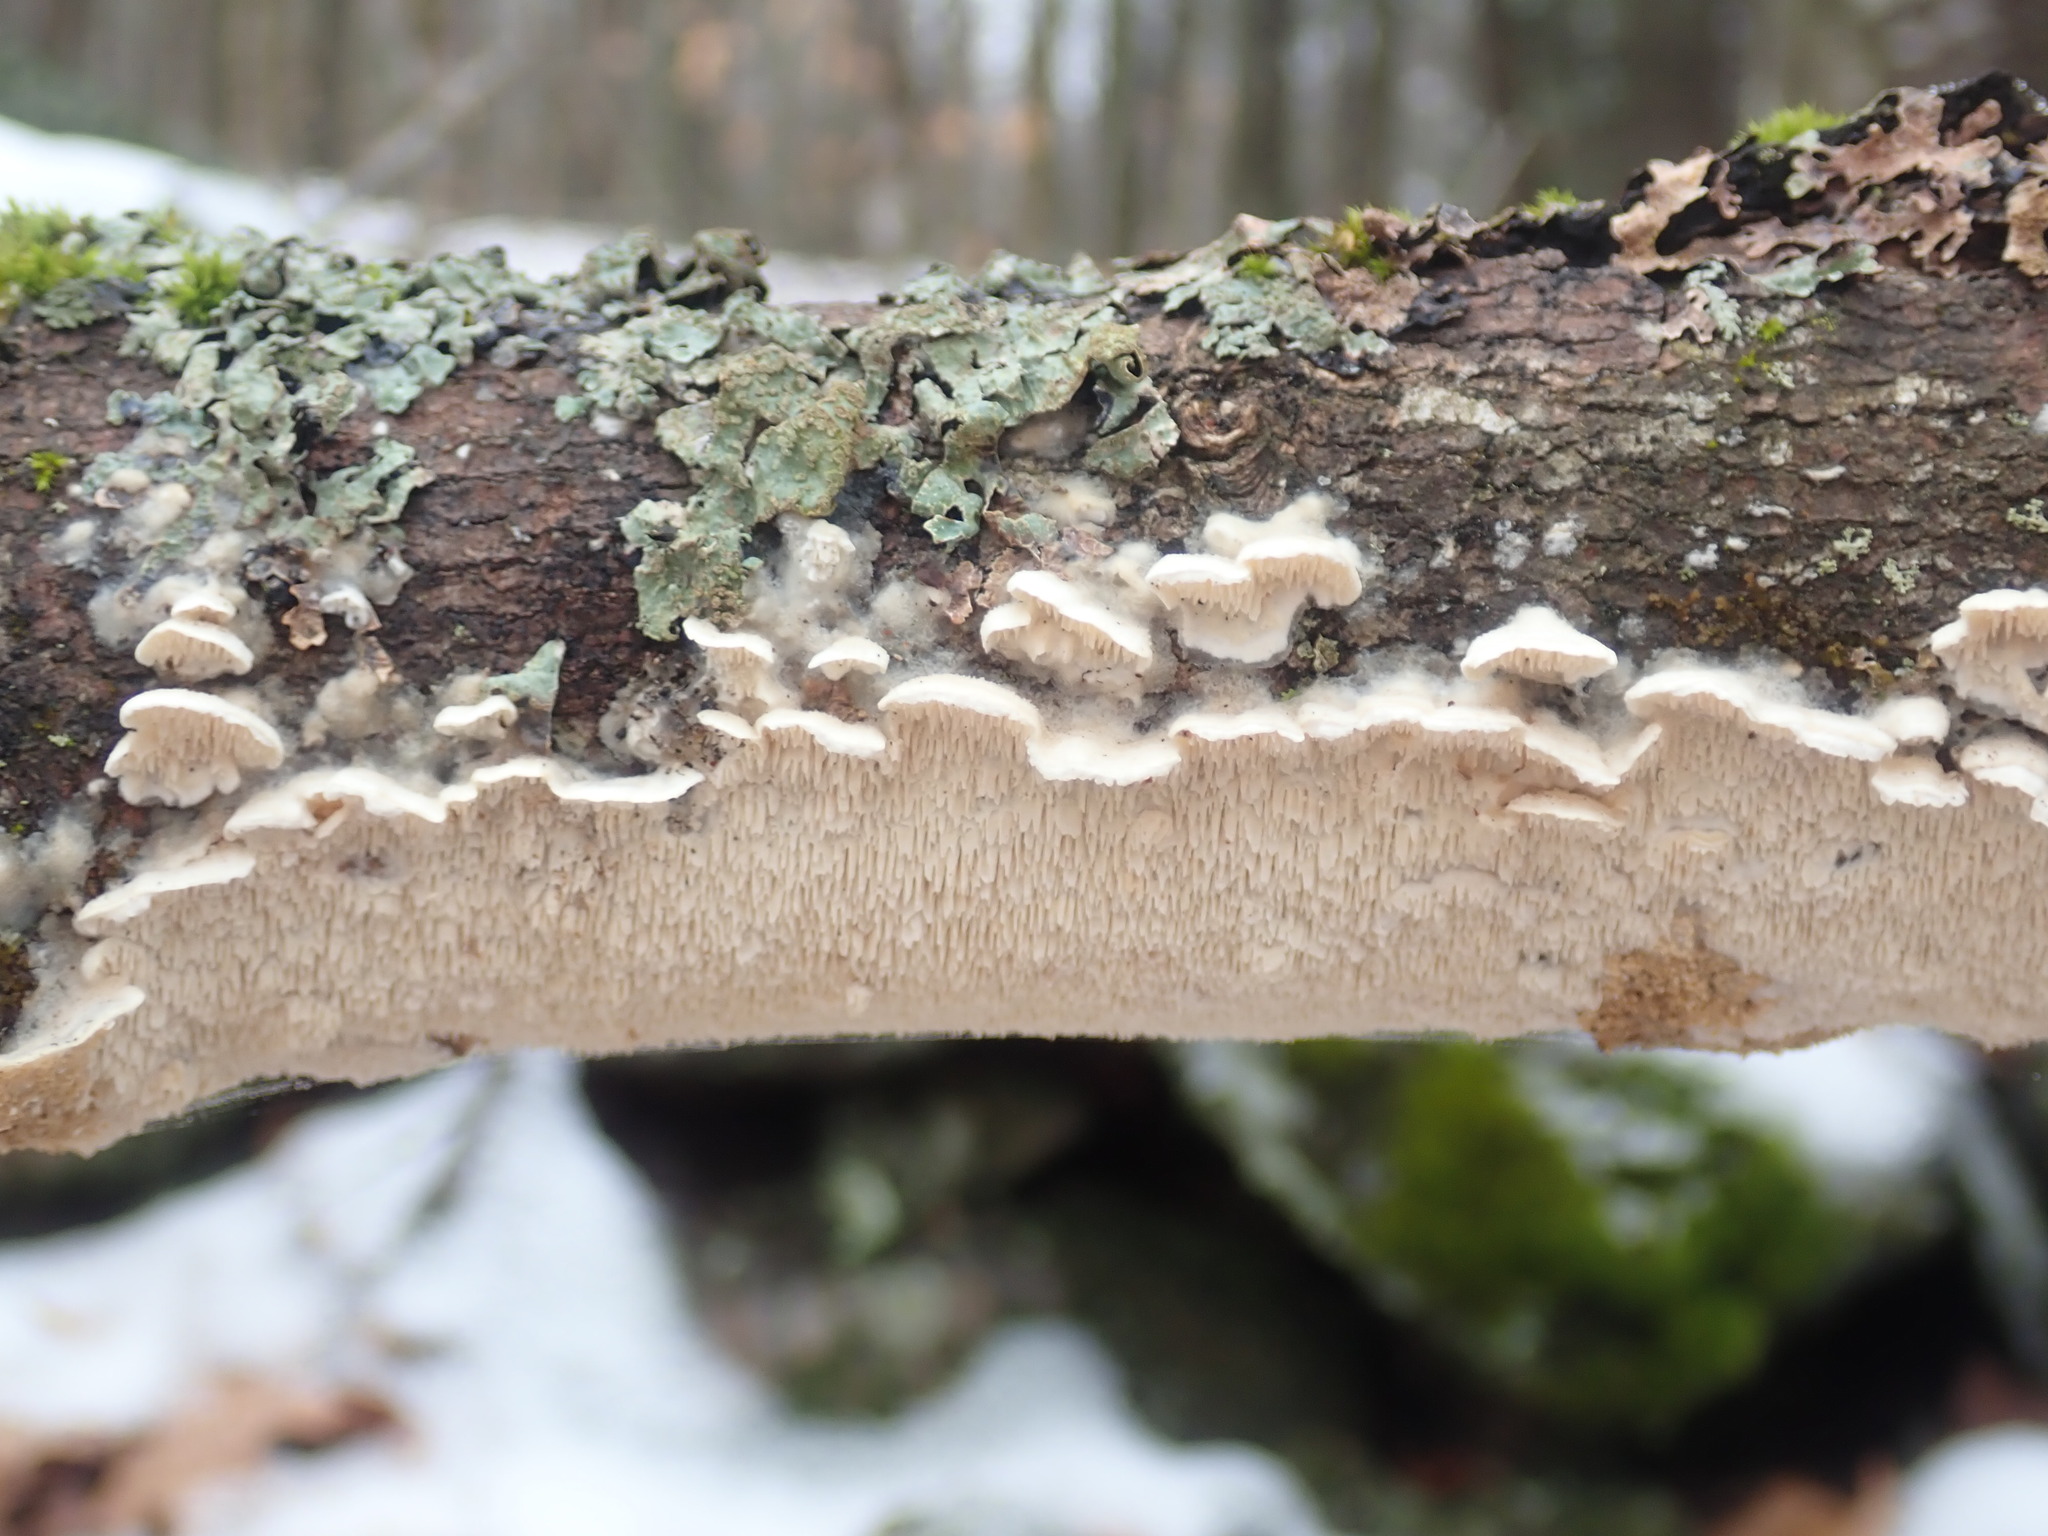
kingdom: Fungi
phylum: Basidiomycota
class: Agaricomycetes
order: Polyporales
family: Irpicaceae
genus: Irpex
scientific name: Irpex lacteus
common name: Milk-white toothed polypore
